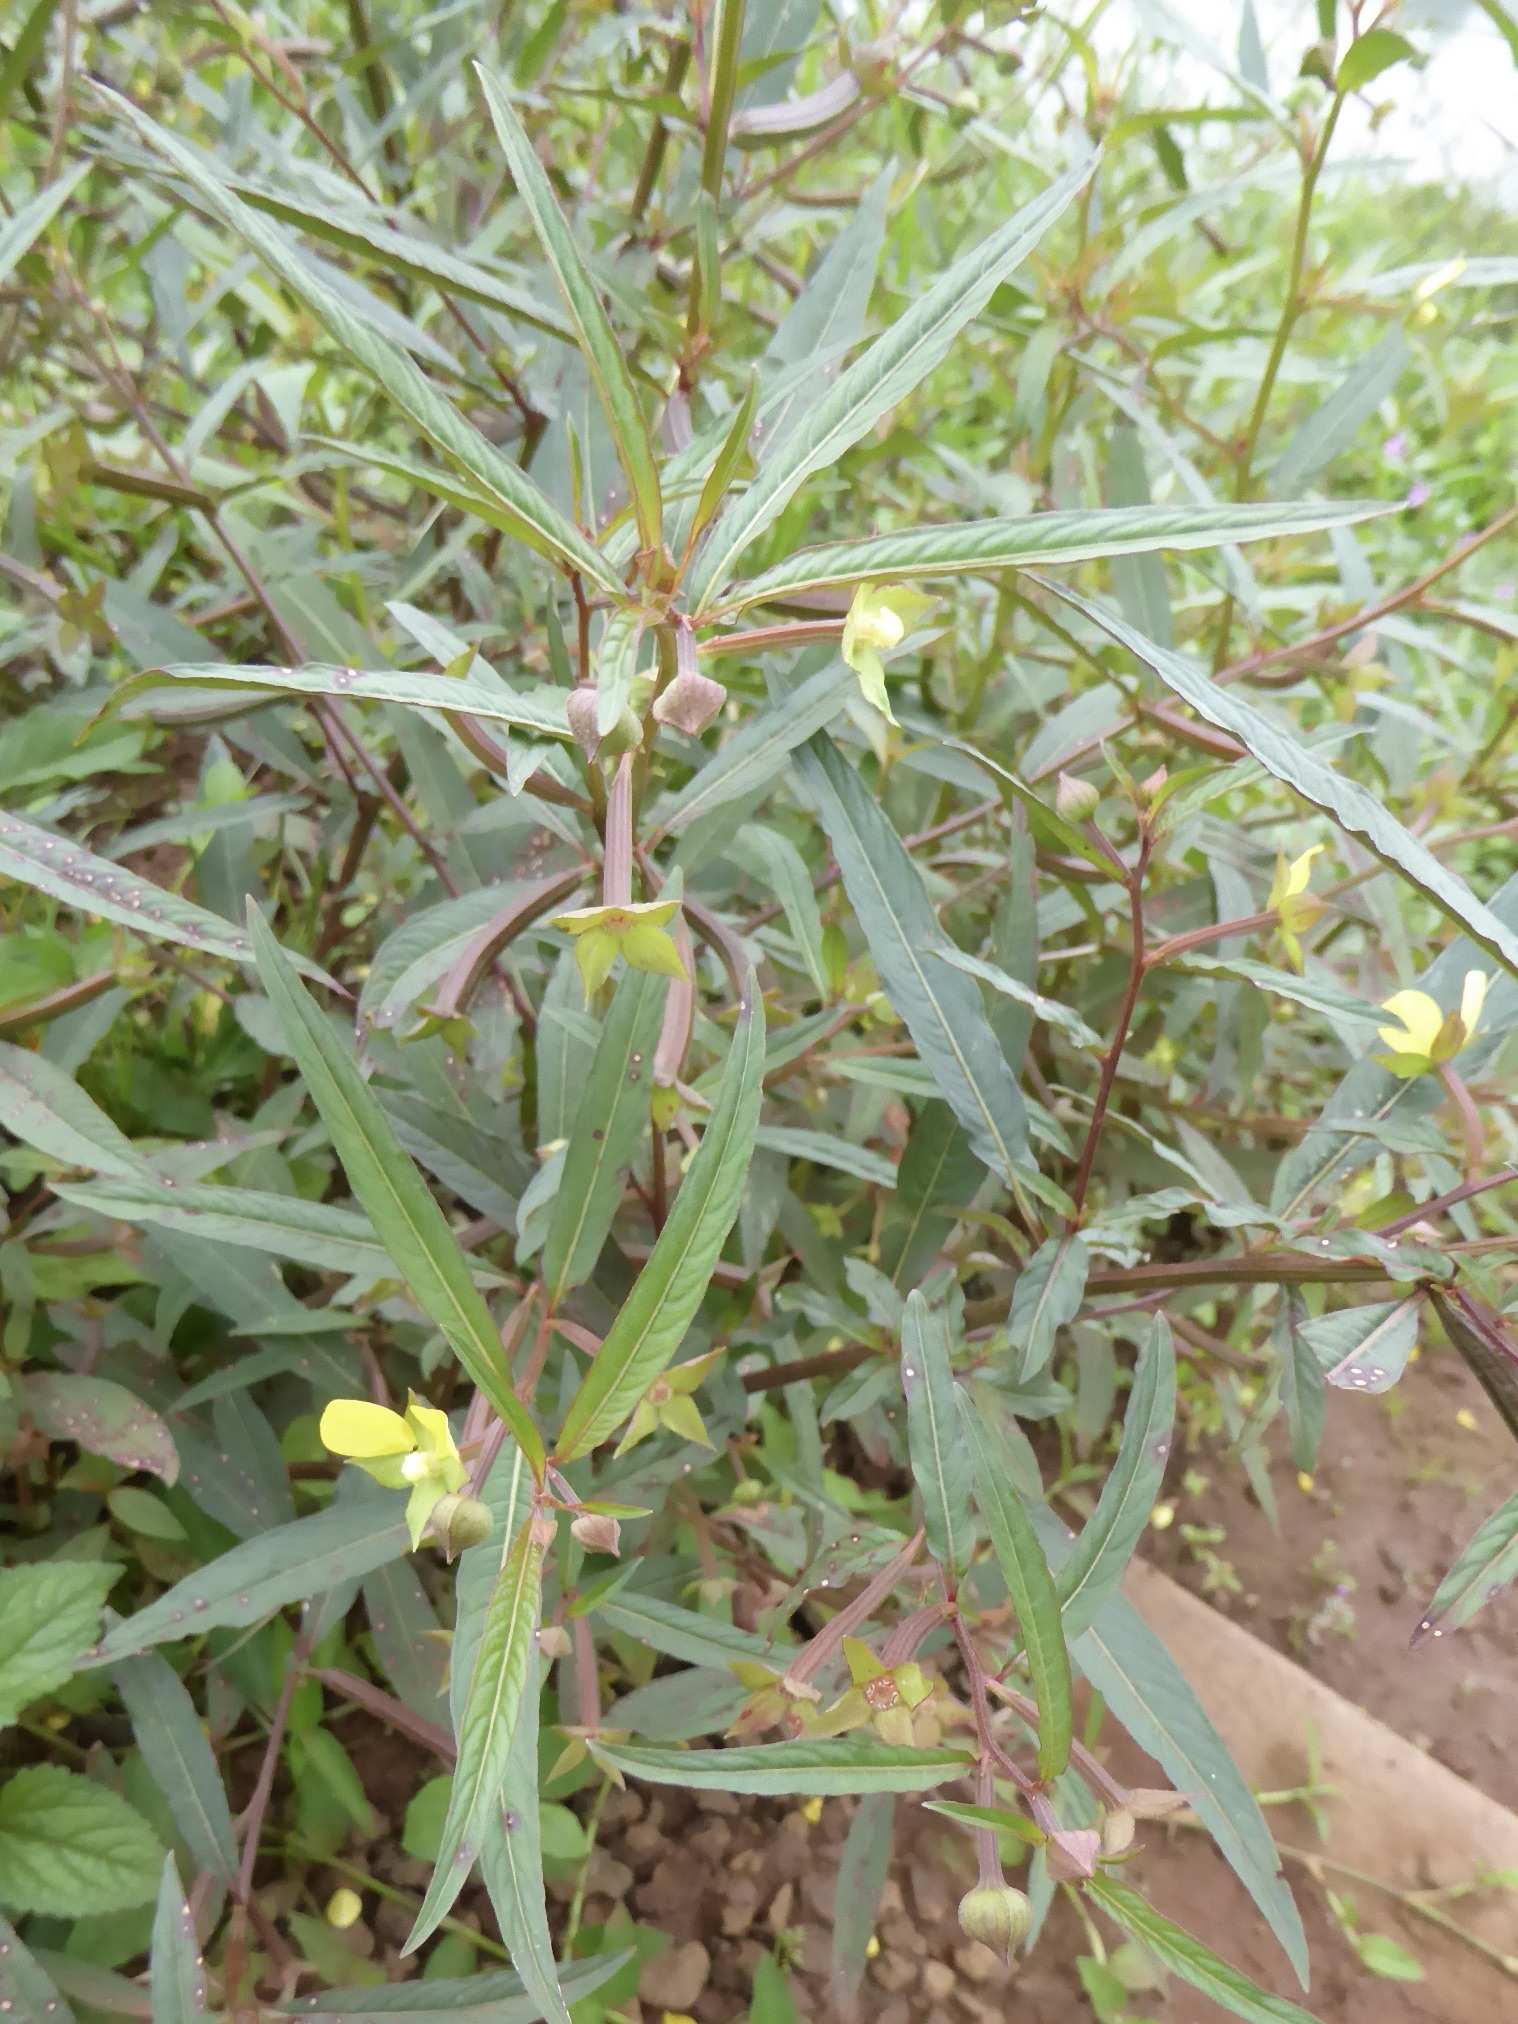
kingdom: Plantae
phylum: Tracheophyta
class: Magnoliopsida
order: Myrtales
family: Onagraceae
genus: Ludwigia
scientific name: Ludwigia octovalvis
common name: Water-primrose
